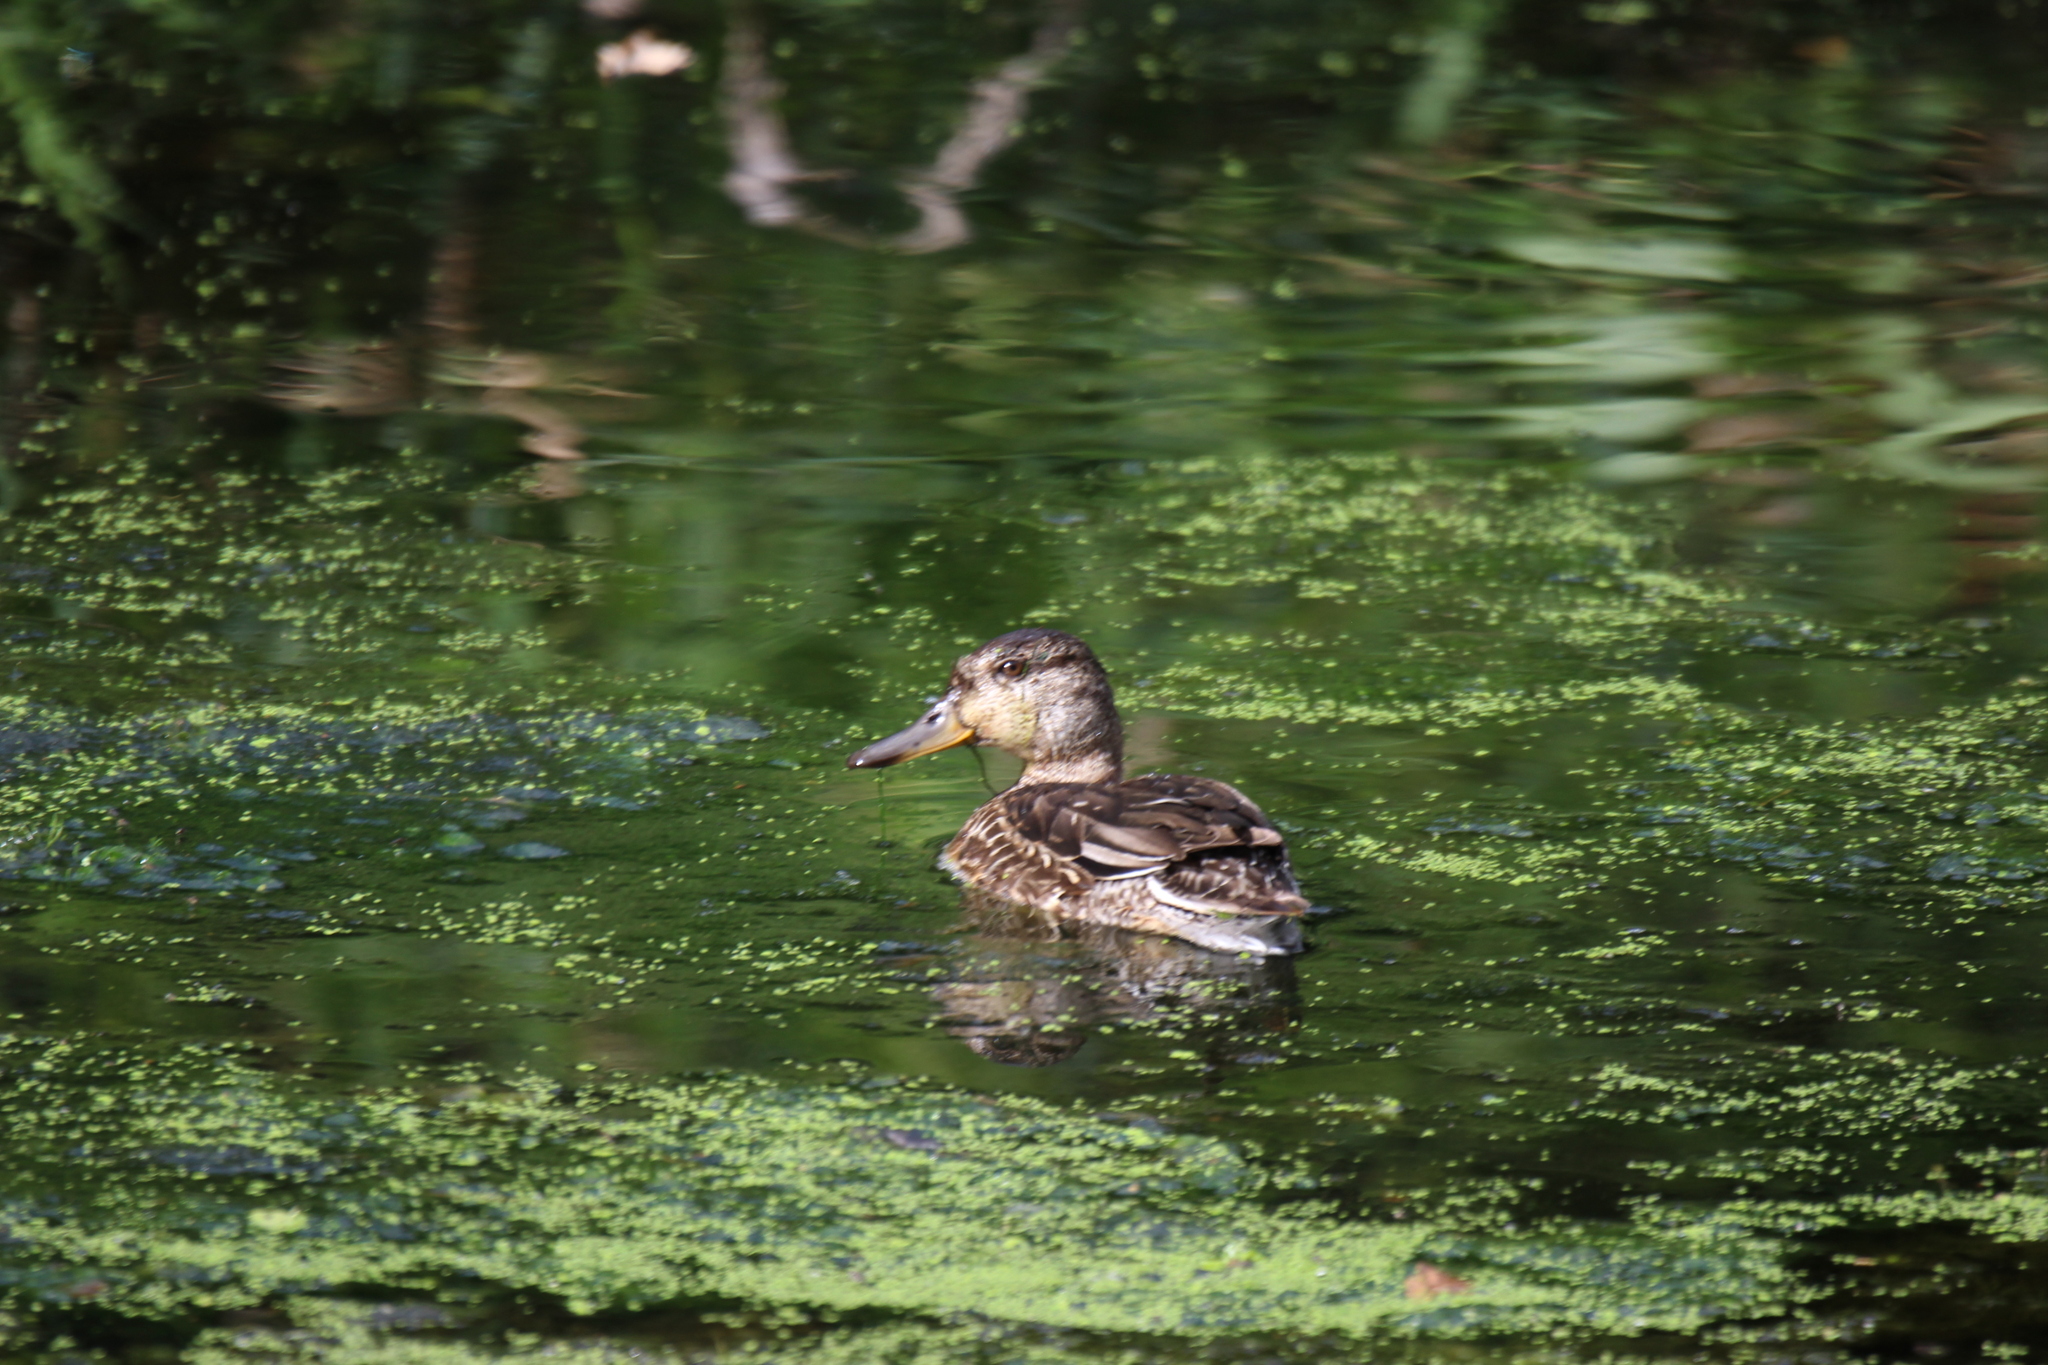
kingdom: Animalia
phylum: Chordata
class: Aves
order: Anseriformes
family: Anatidae
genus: Anas
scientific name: Anas crecca
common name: Eurasian teal
